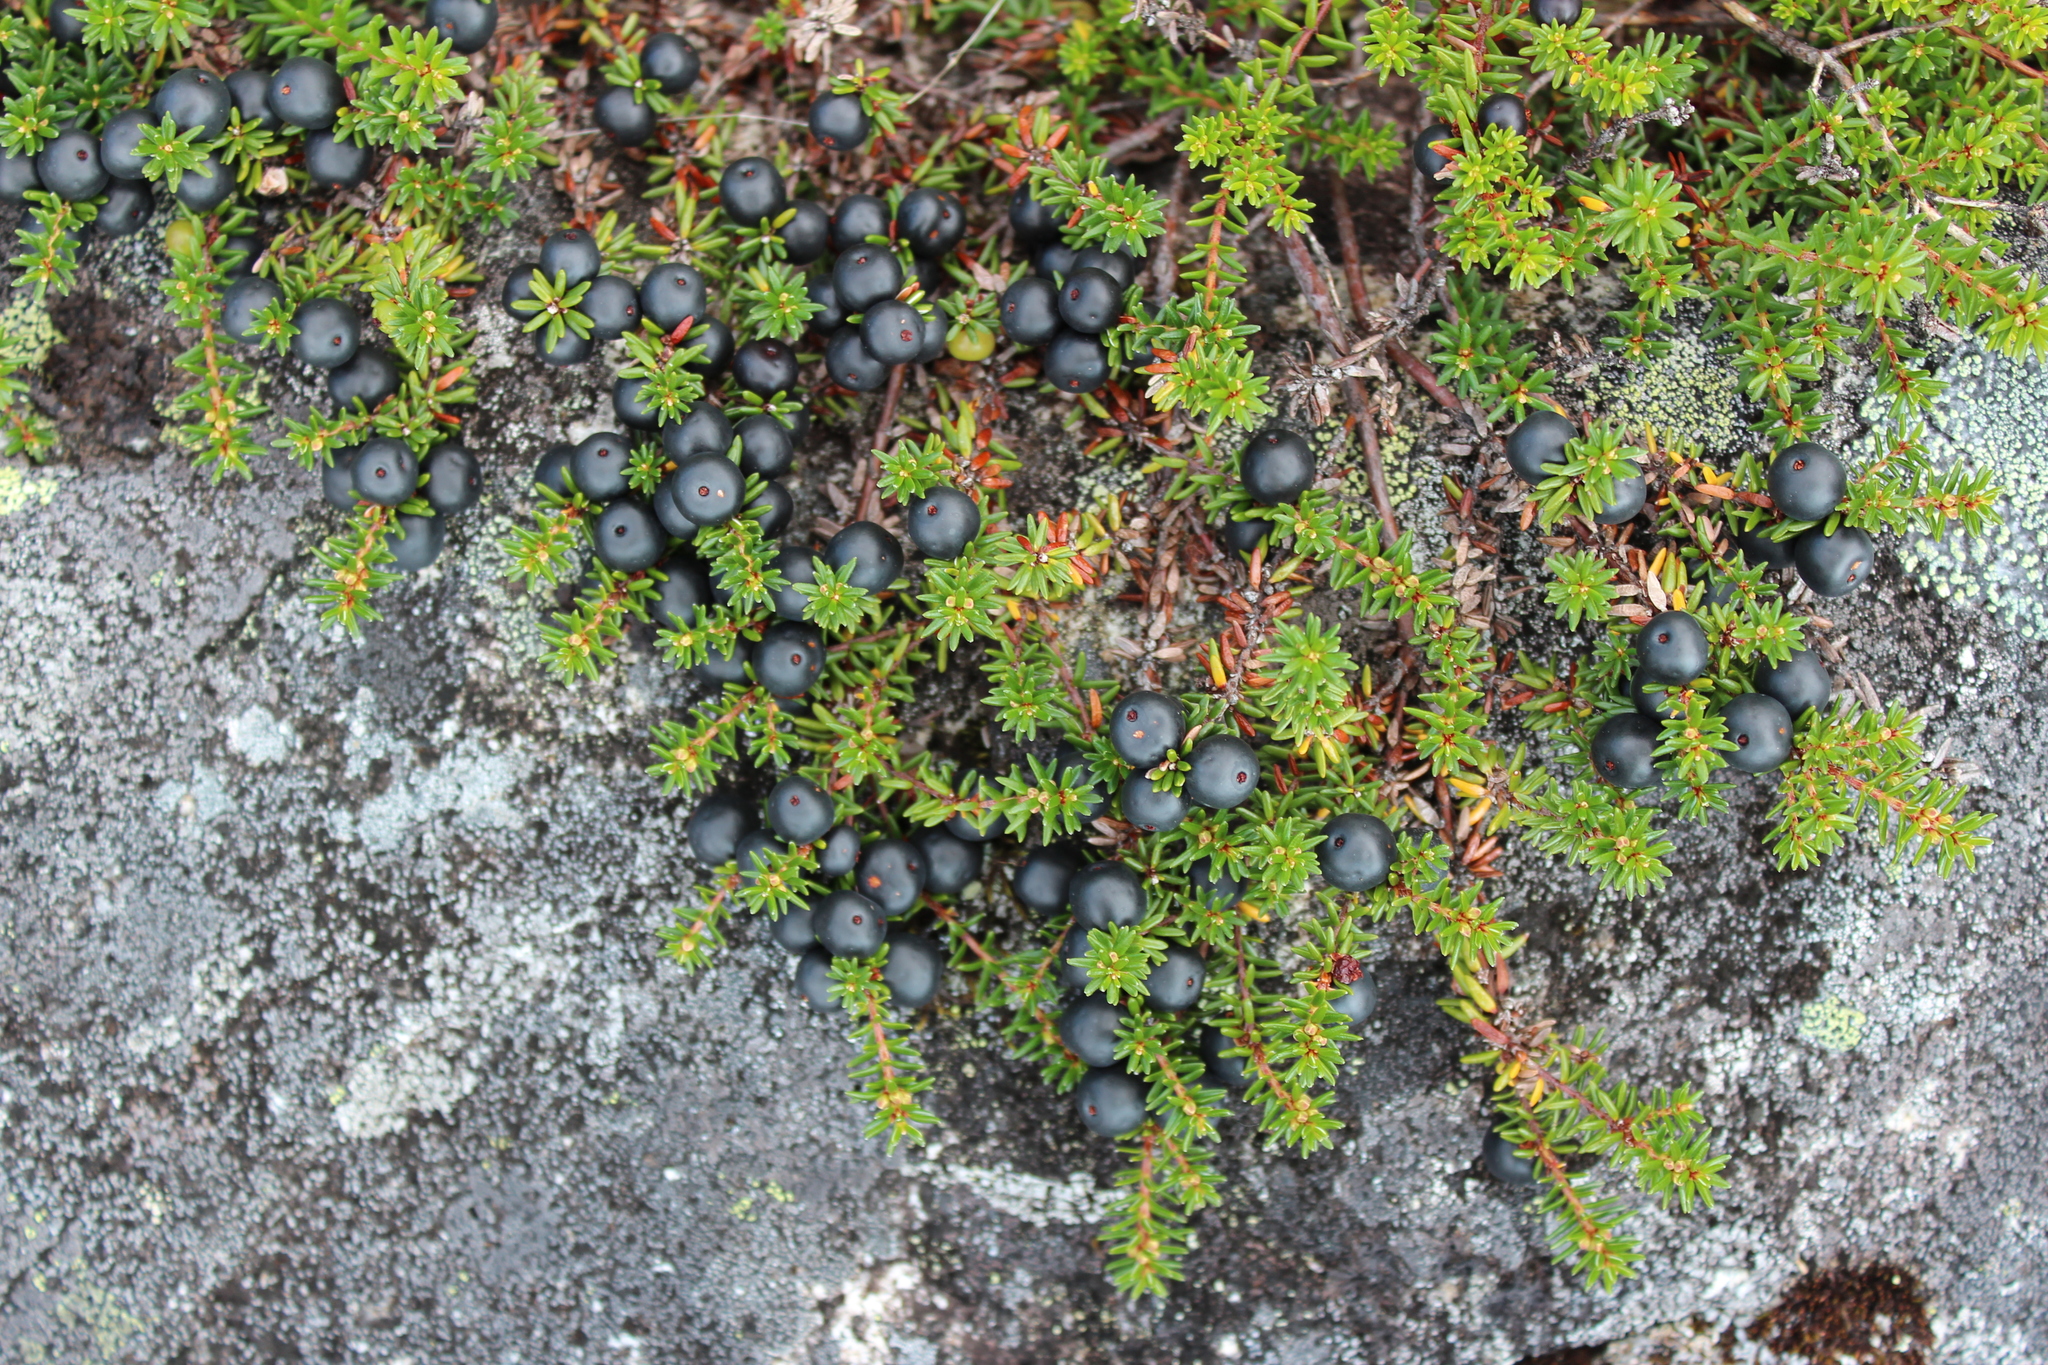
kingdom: Plantae
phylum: Tracheophyta
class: Magnoliopsida
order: Ericales
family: Ericaceae
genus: Empetrum
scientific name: Empetrum nigrum
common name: Black crowberry
